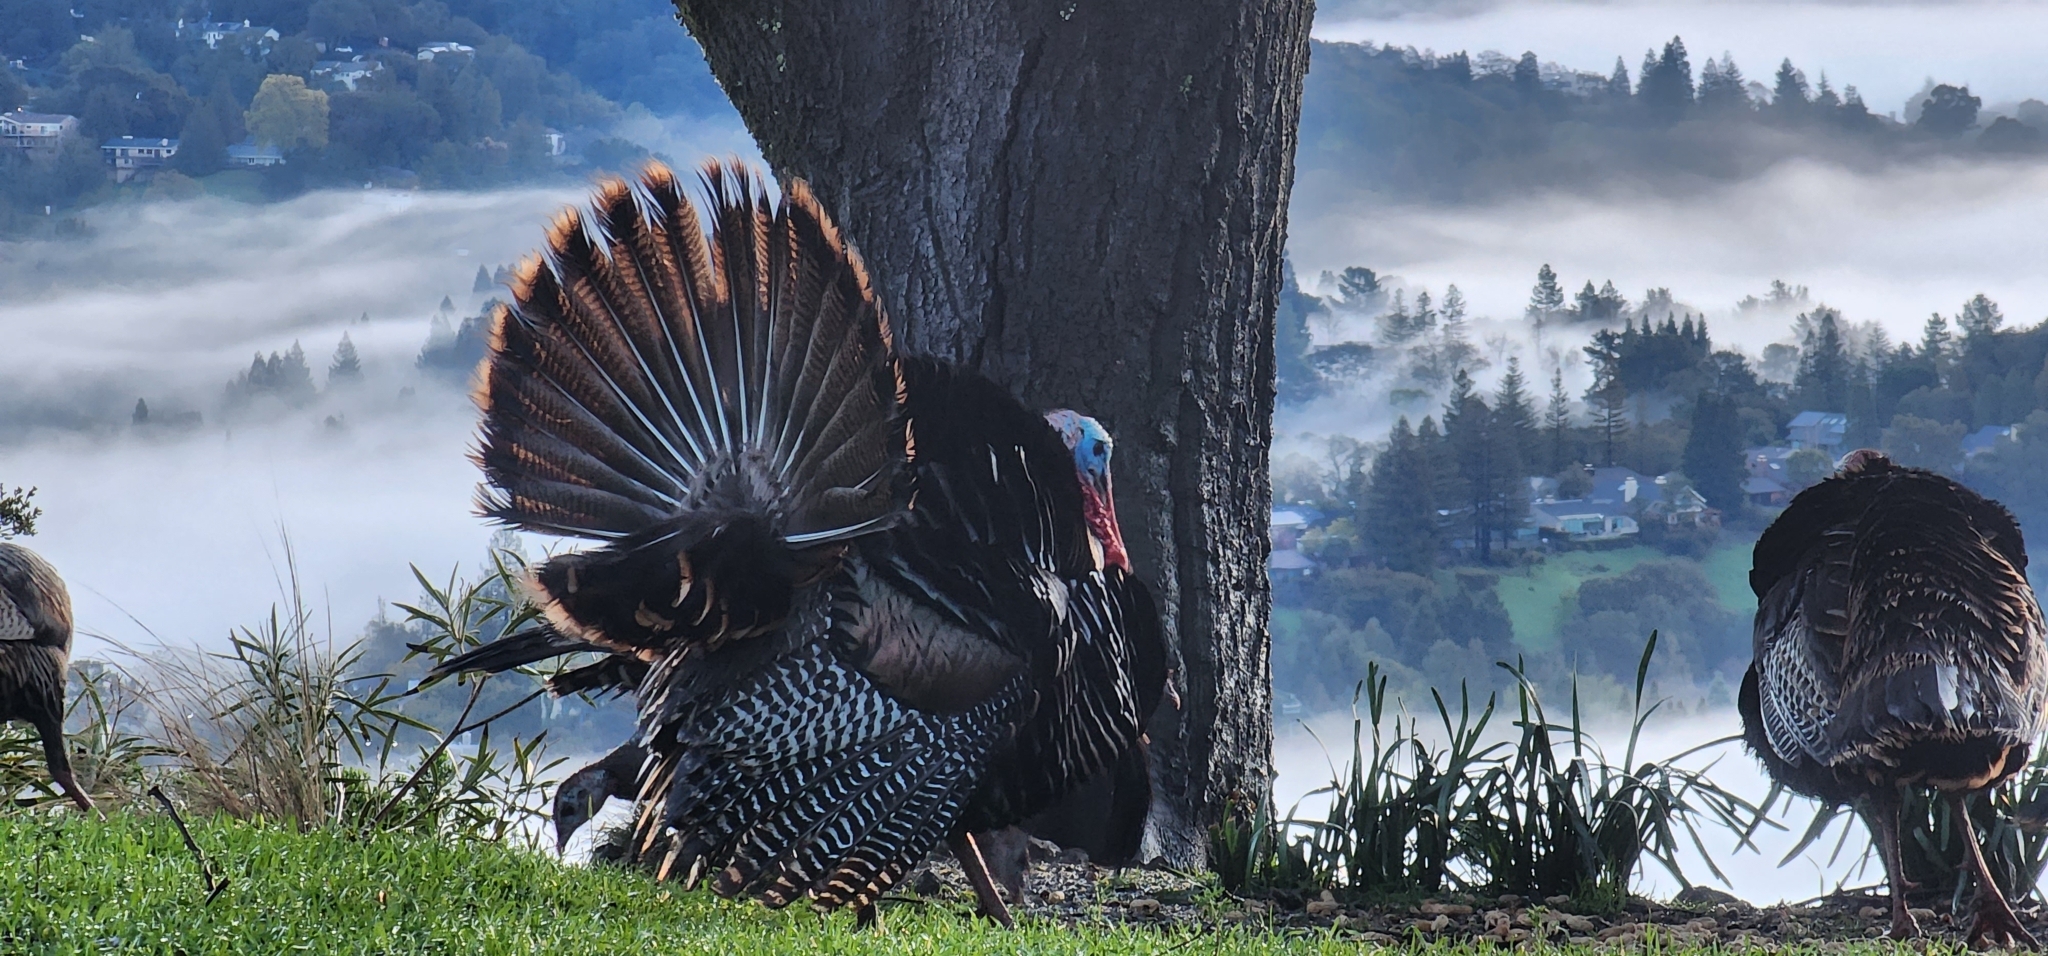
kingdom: Animalia
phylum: Chordata
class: Aves
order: Galliformes
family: Phasianidae
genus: Meleagris
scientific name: Meleagris gallopavo
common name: Wild turkey
